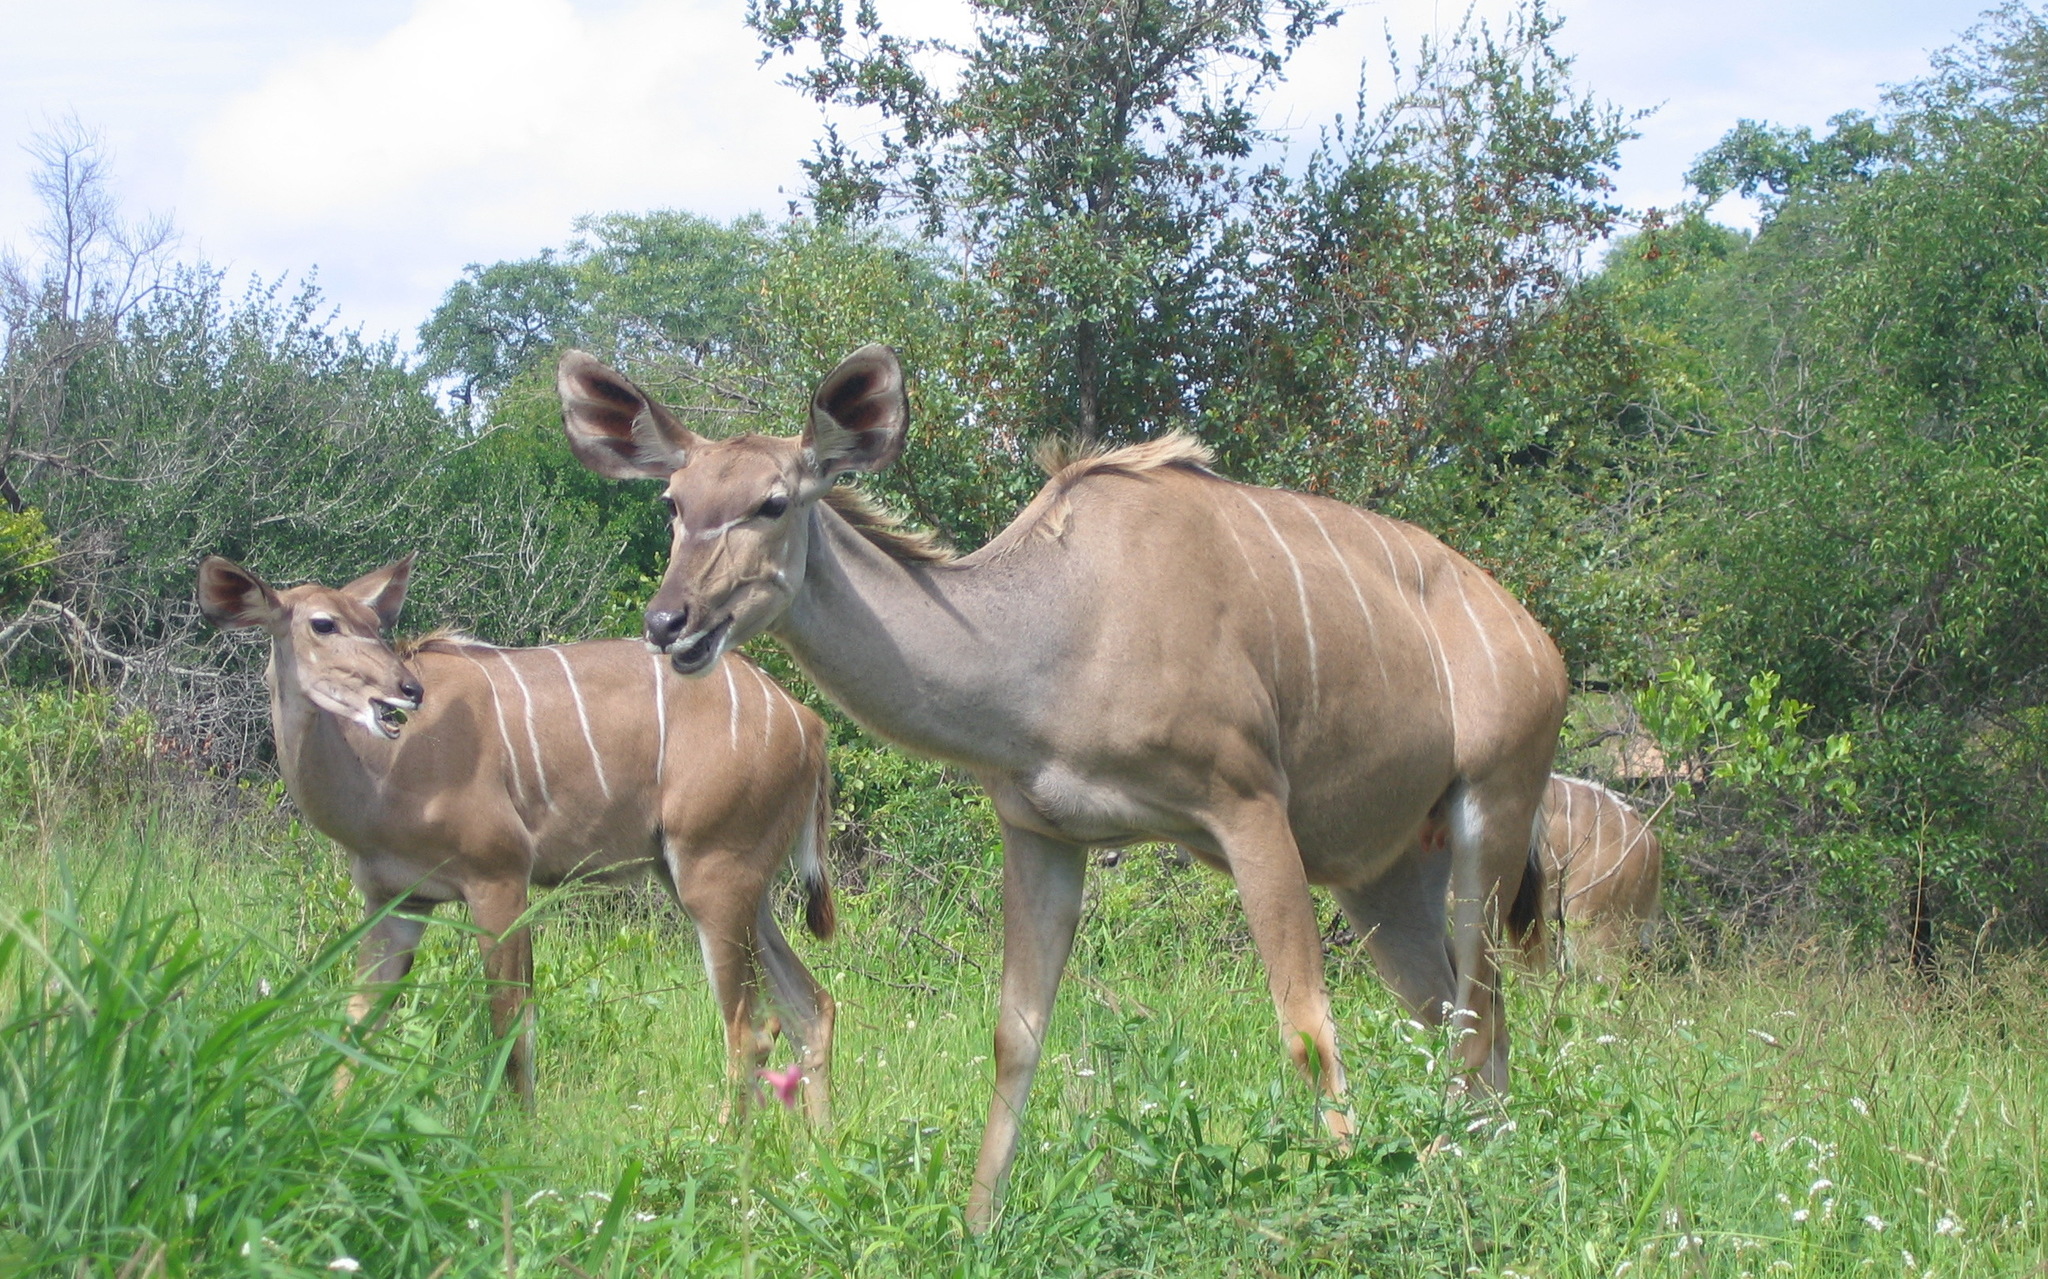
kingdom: Animalia
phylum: Chordata
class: Mammalia
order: Artiodactyla
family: Bovidae
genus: Tragelaphus
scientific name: Tragelaphus strepsiceros
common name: Greater kudu
